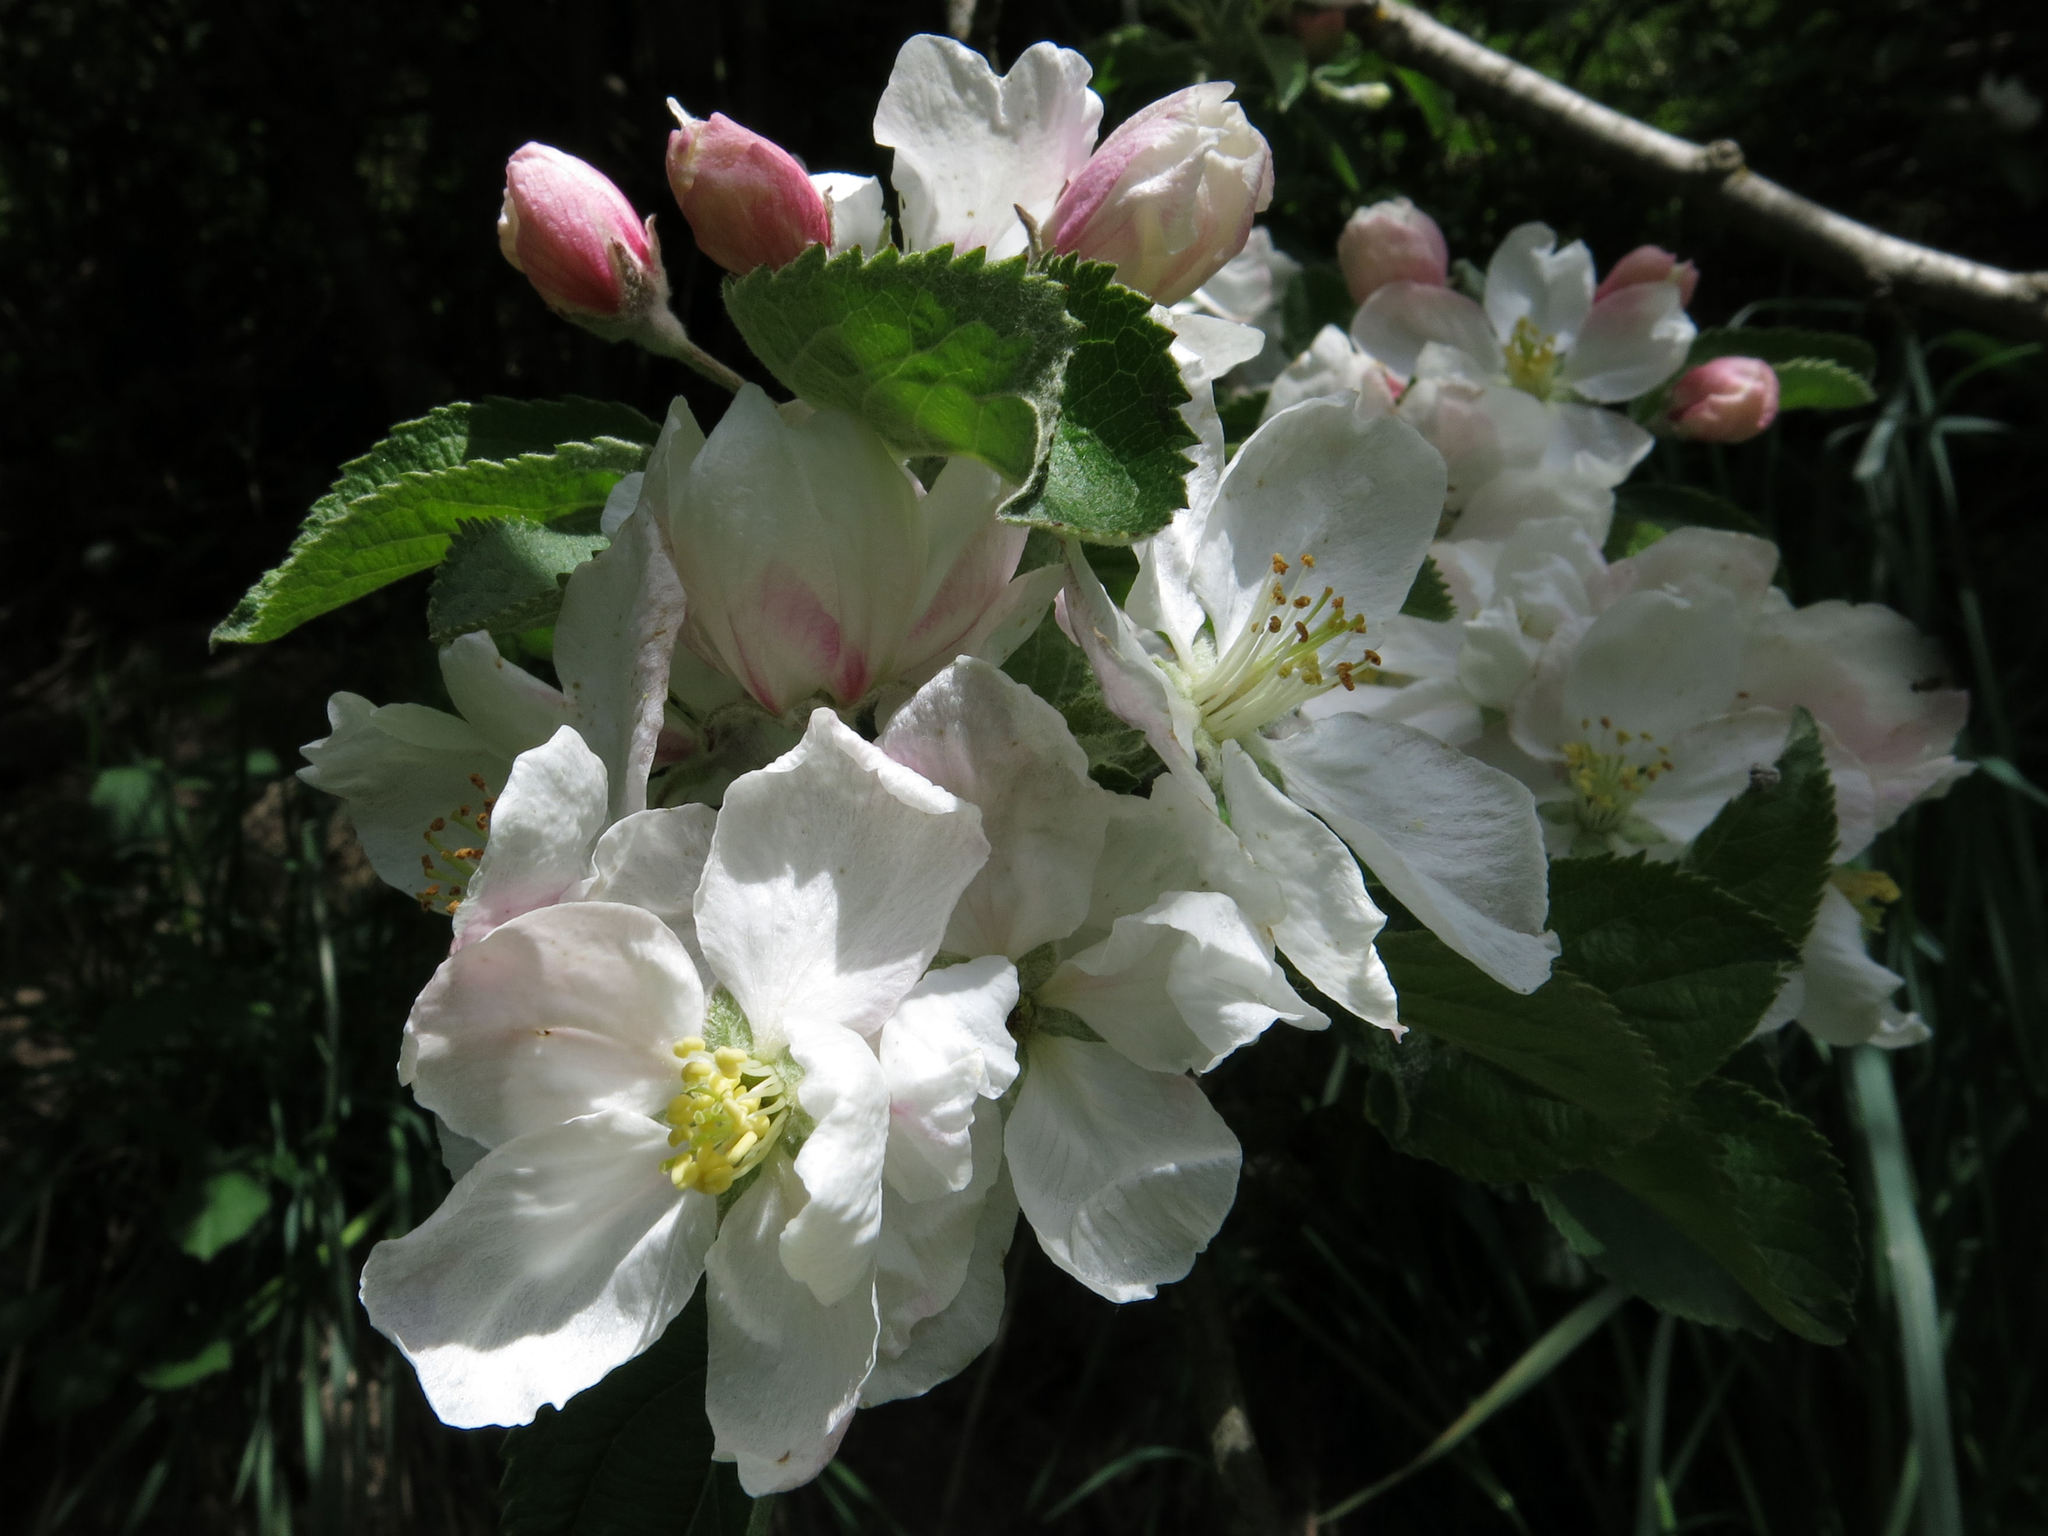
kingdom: Plantae
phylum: Tracheophyta
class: Magnoliopsida
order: Rosales
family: Rosaceae
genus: Malus
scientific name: Malus domestica
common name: Apple
